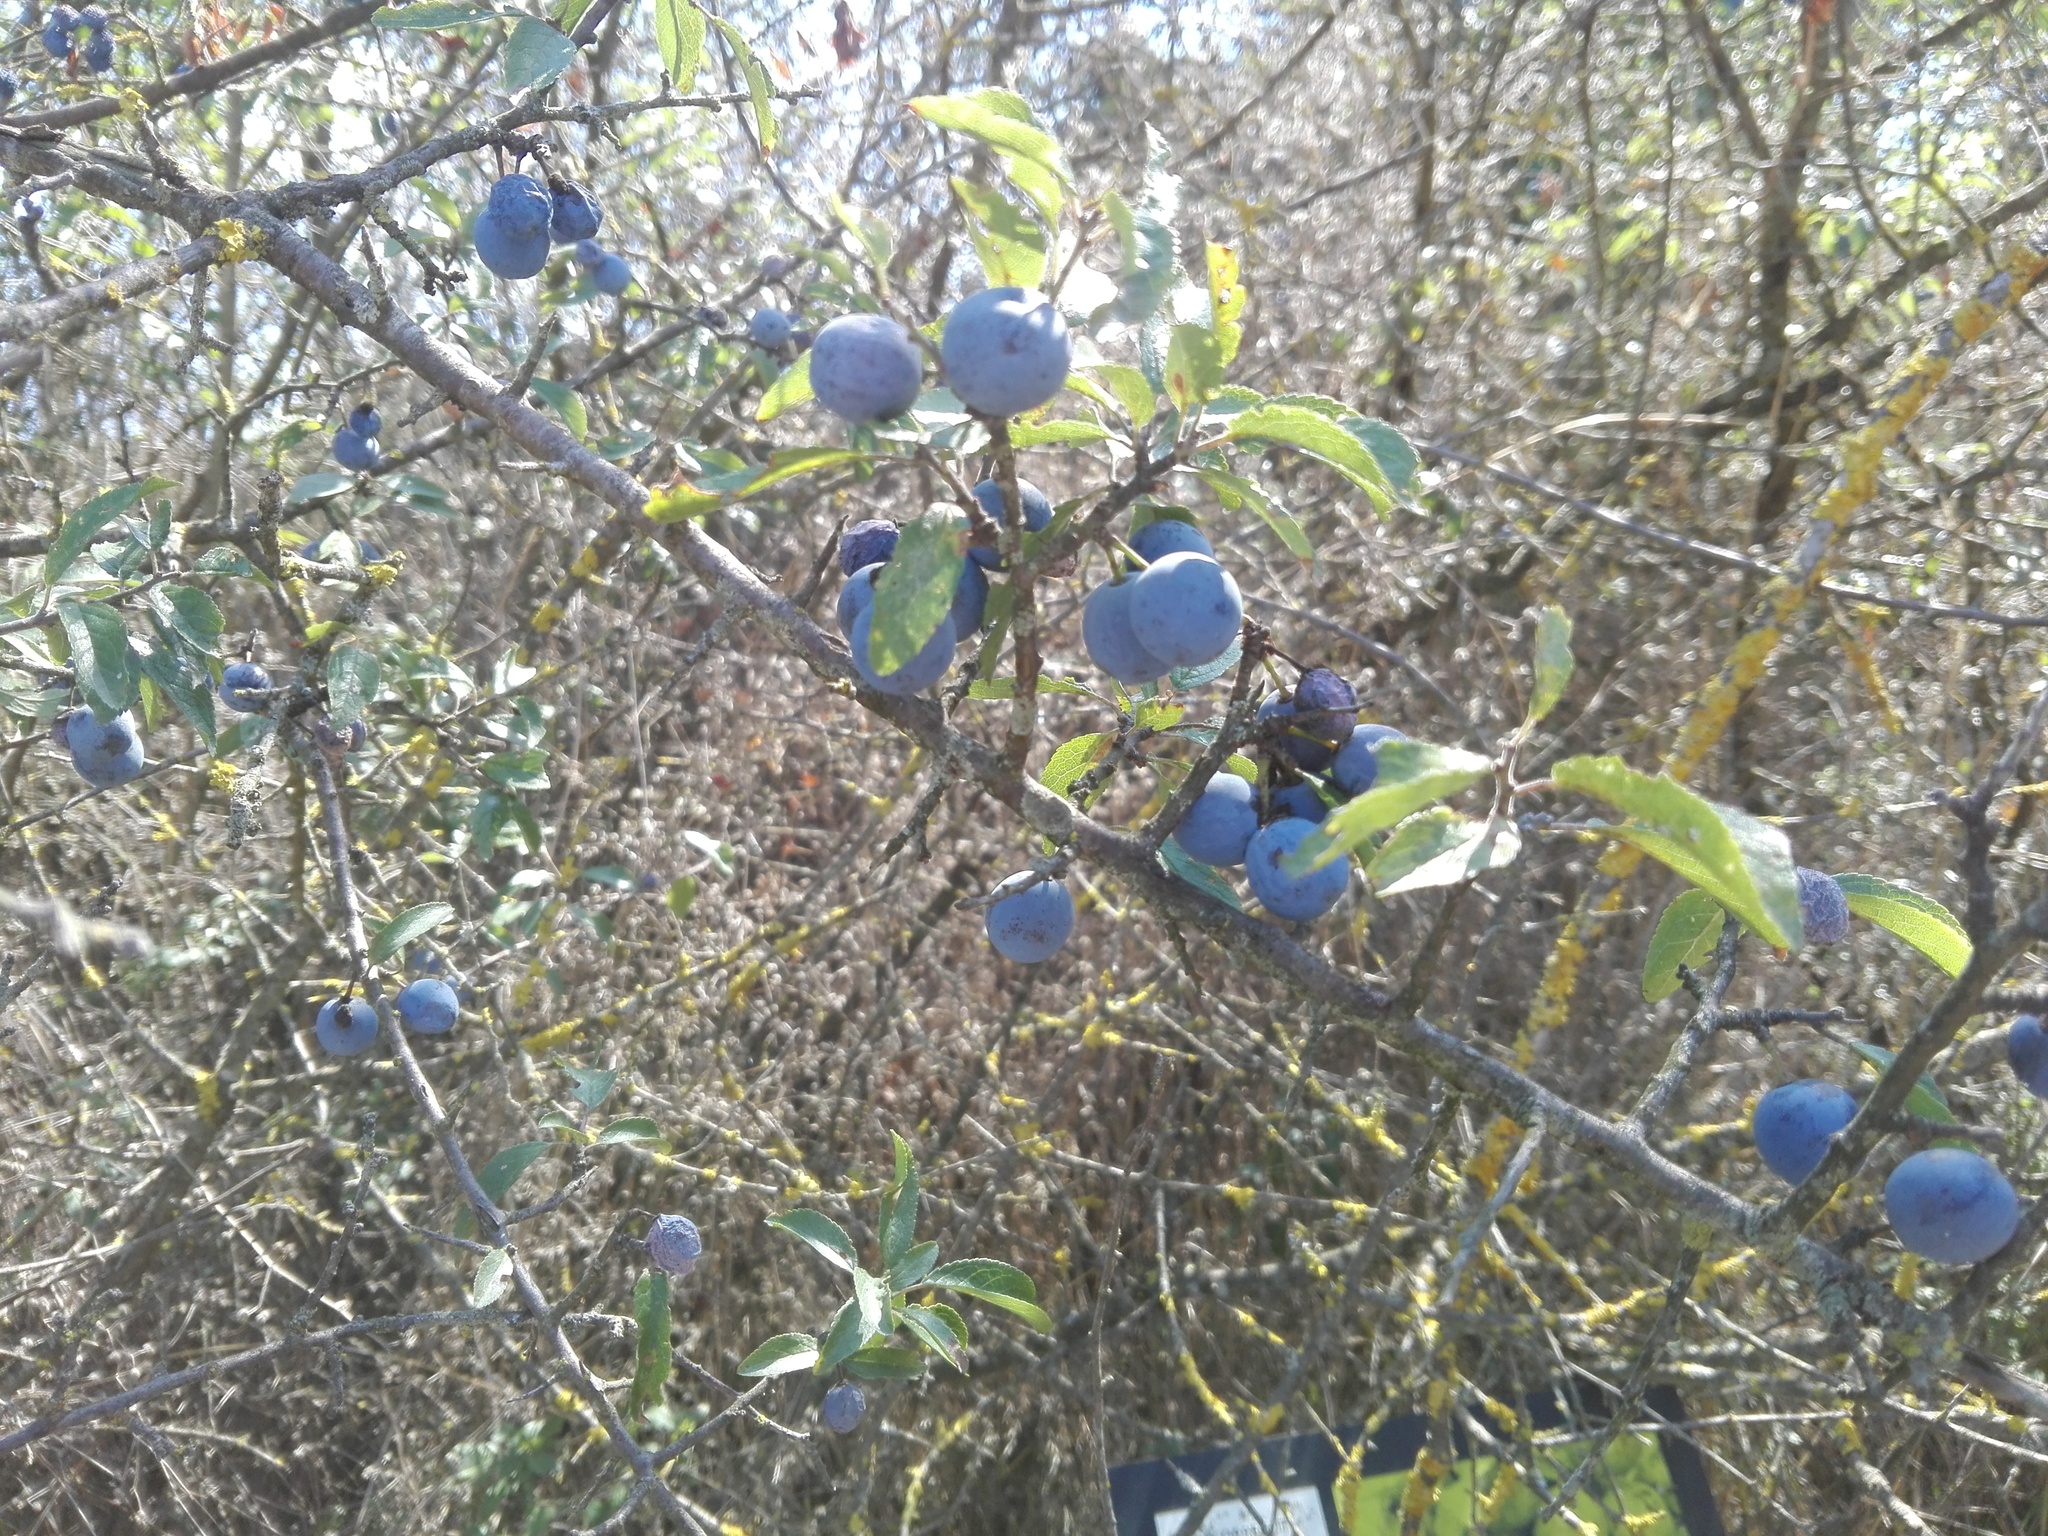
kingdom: Plantae
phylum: Tracheophyta
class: Magnoliopsida
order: Rosales
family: Rosaceae
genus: Prunus
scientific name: Prunus spinosa
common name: Blackthorn
